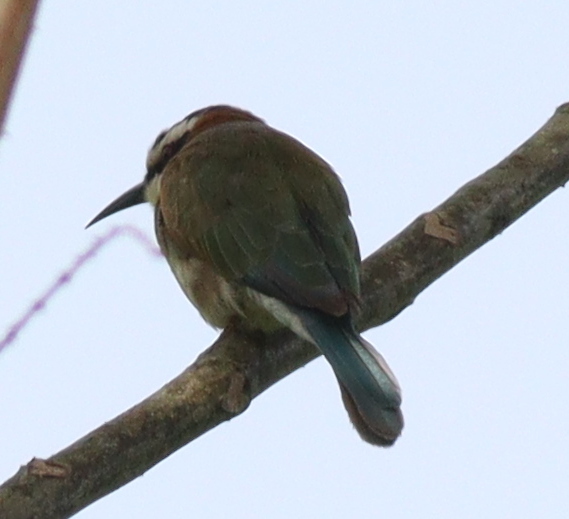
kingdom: Animalia
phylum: Chordata
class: Aves
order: Coraciiformes
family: Meropidae
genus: Merops
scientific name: Merops albicollis
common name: White-throated bee-eater
